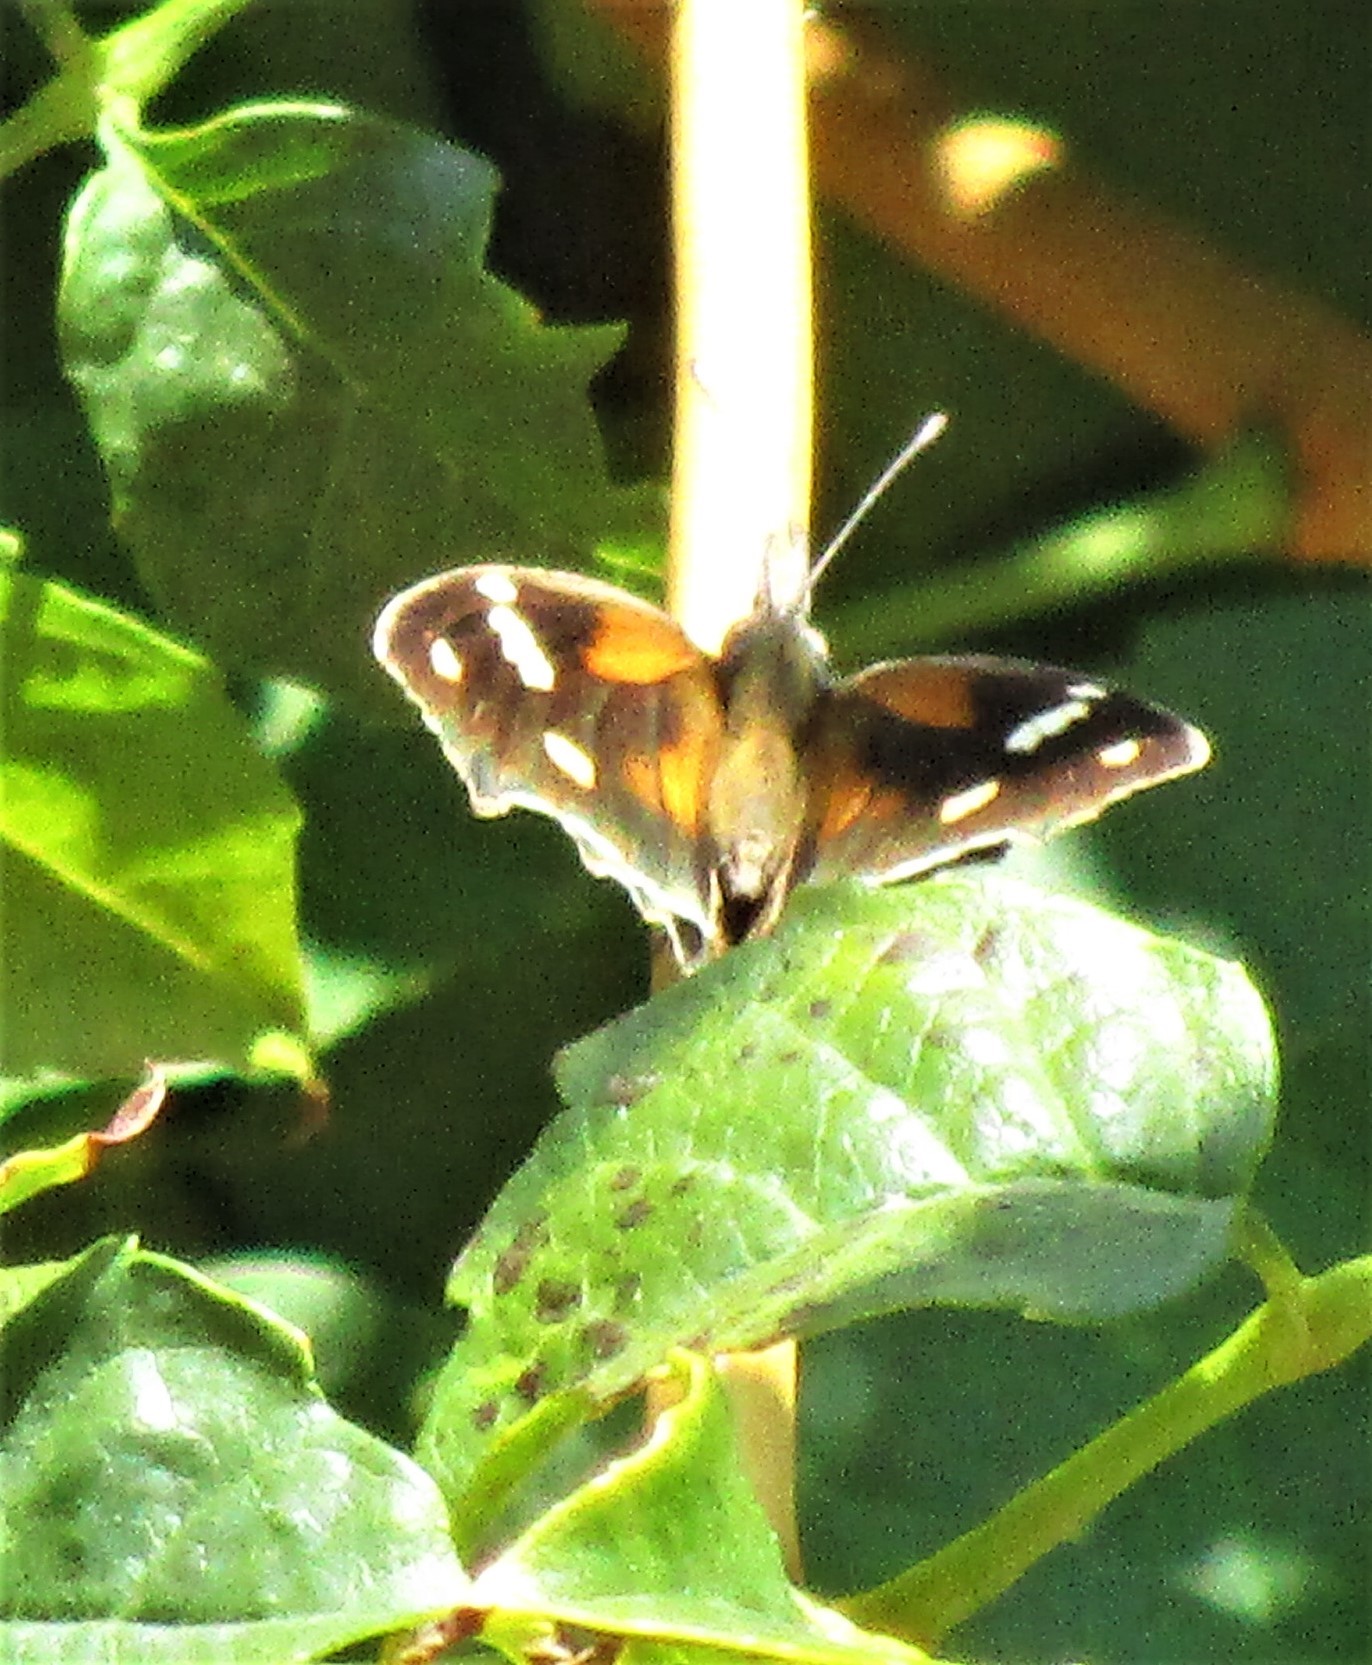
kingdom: Animalia
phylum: Arthropoda
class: Insecta
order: Lepidoptera
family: Nymphalidae
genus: Libytheana
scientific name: Libytheana carinenta
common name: American snout
